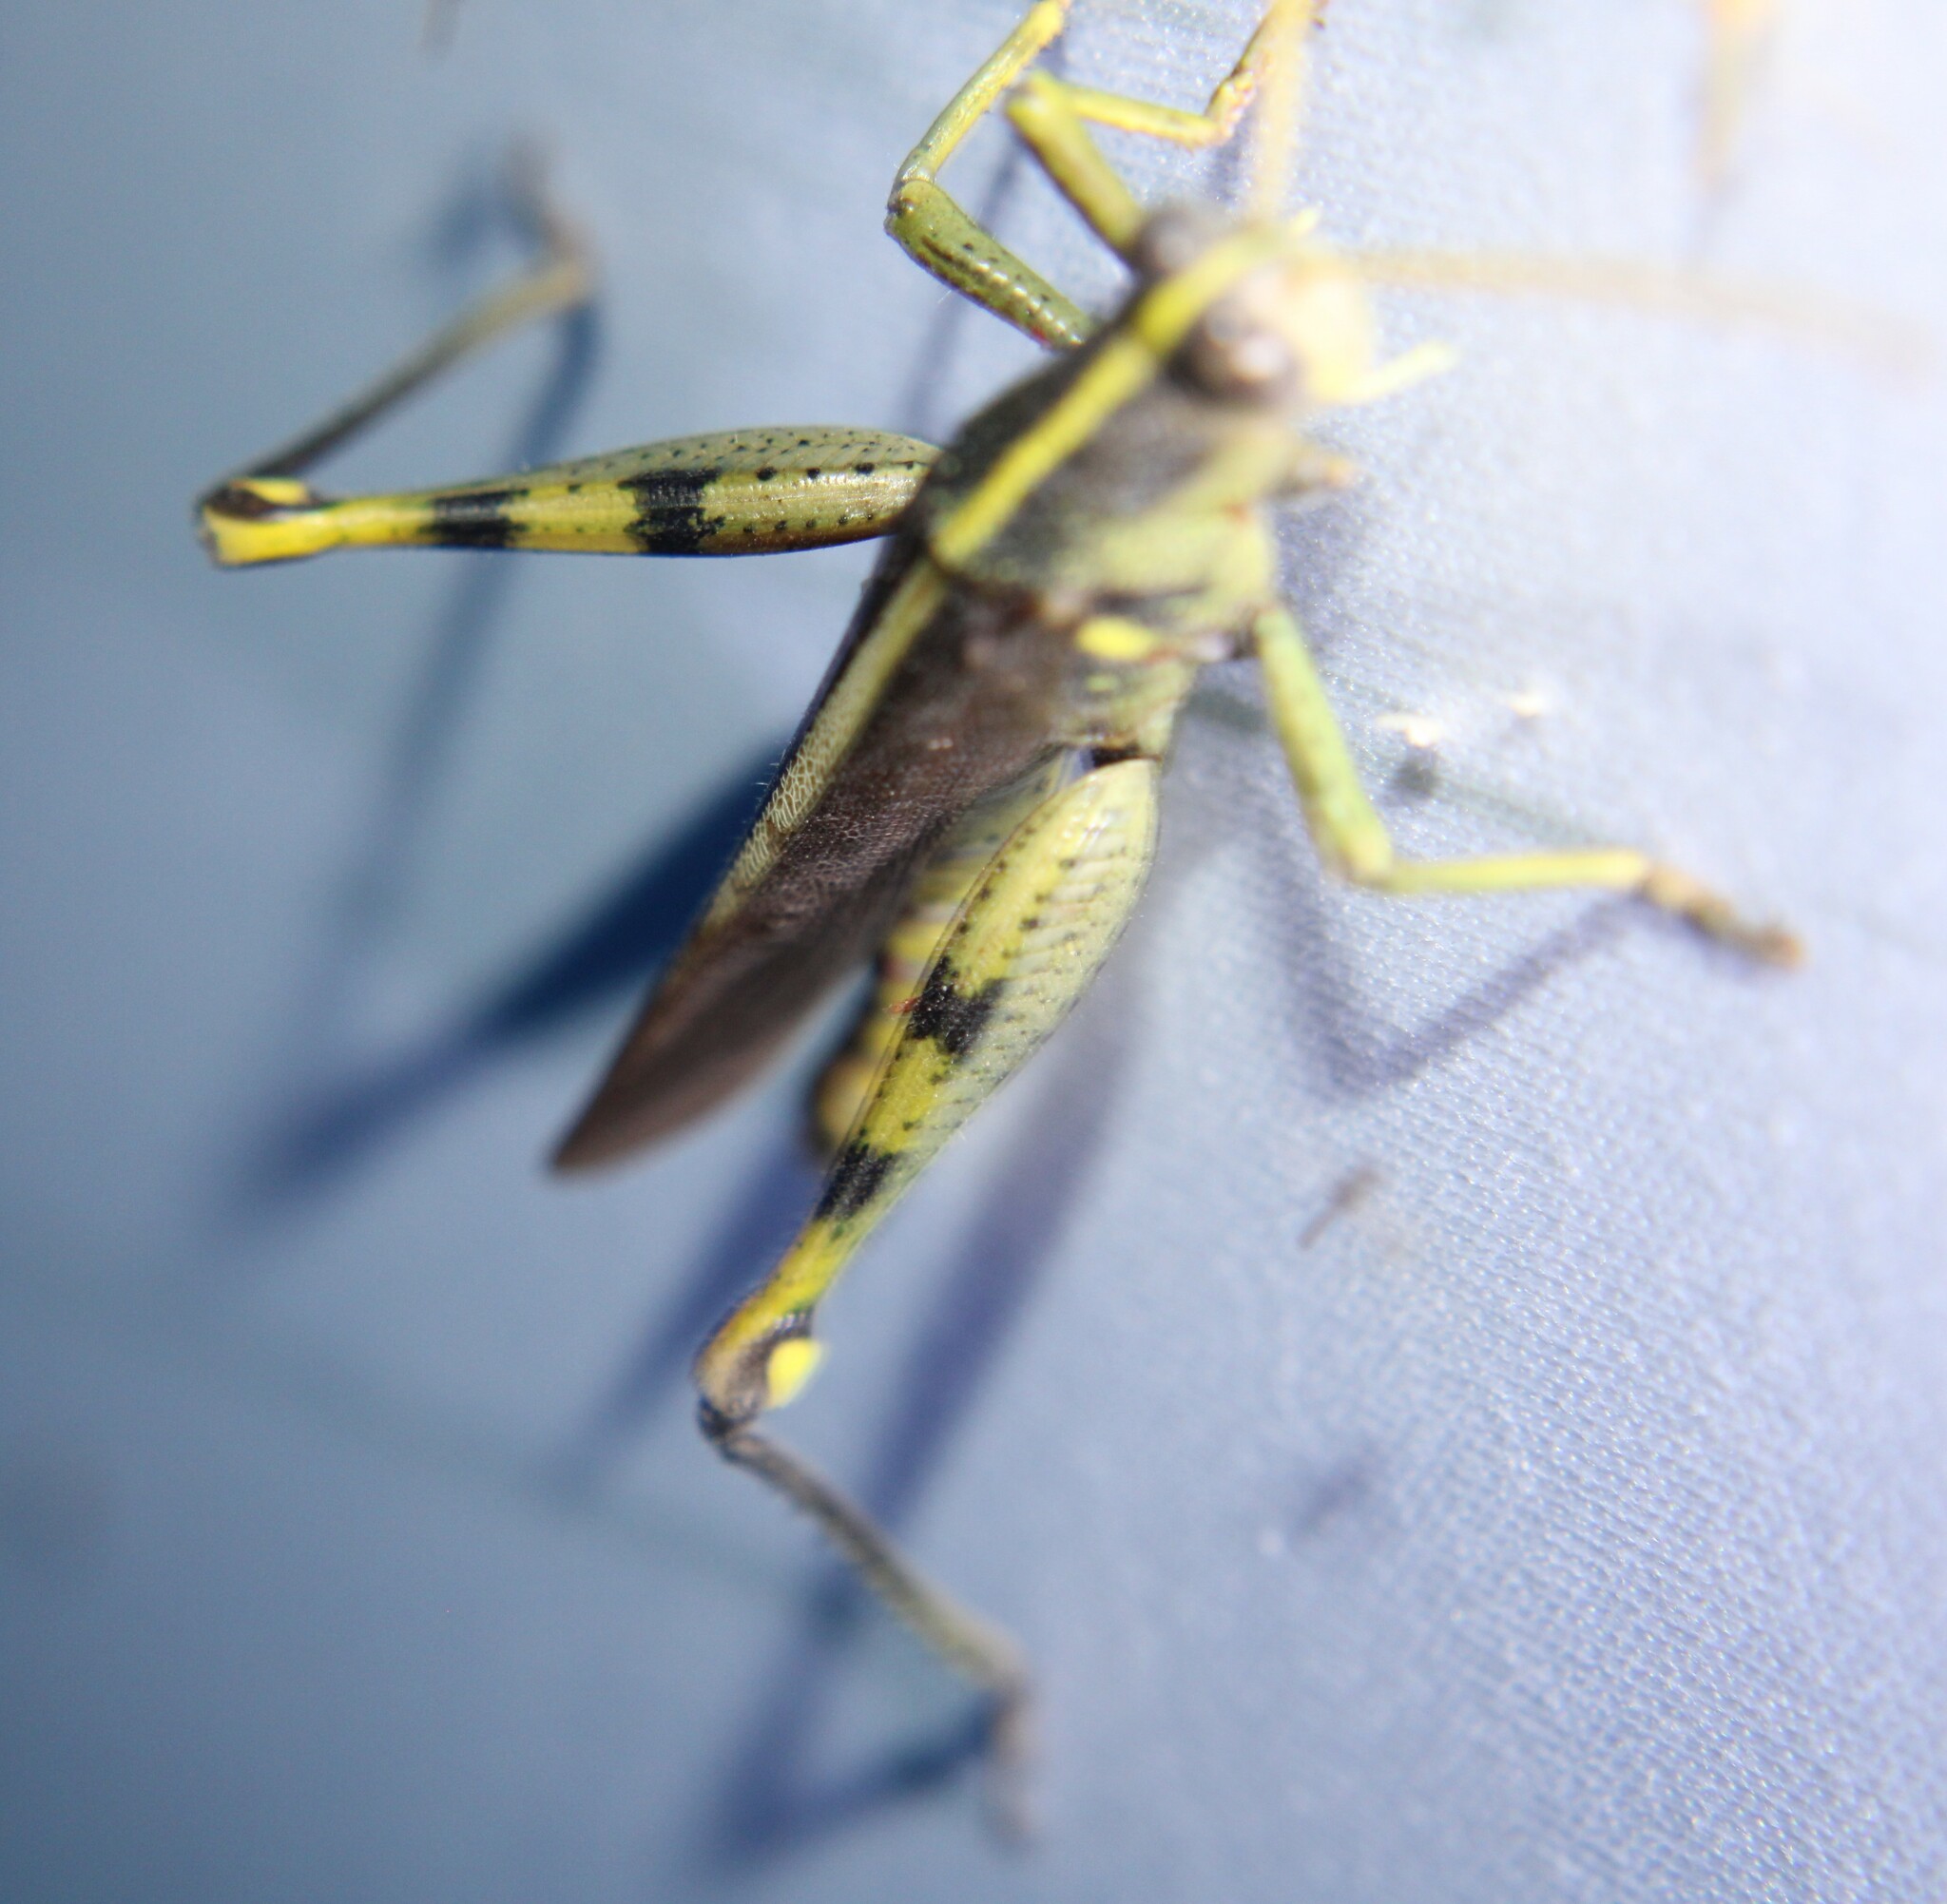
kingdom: Animalia
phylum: Arthropoda
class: Insecta
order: Orthoptera
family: Acrididae
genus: Schistocerca
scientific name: Schistocerca obscura
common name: Obscure bird grasshopper
